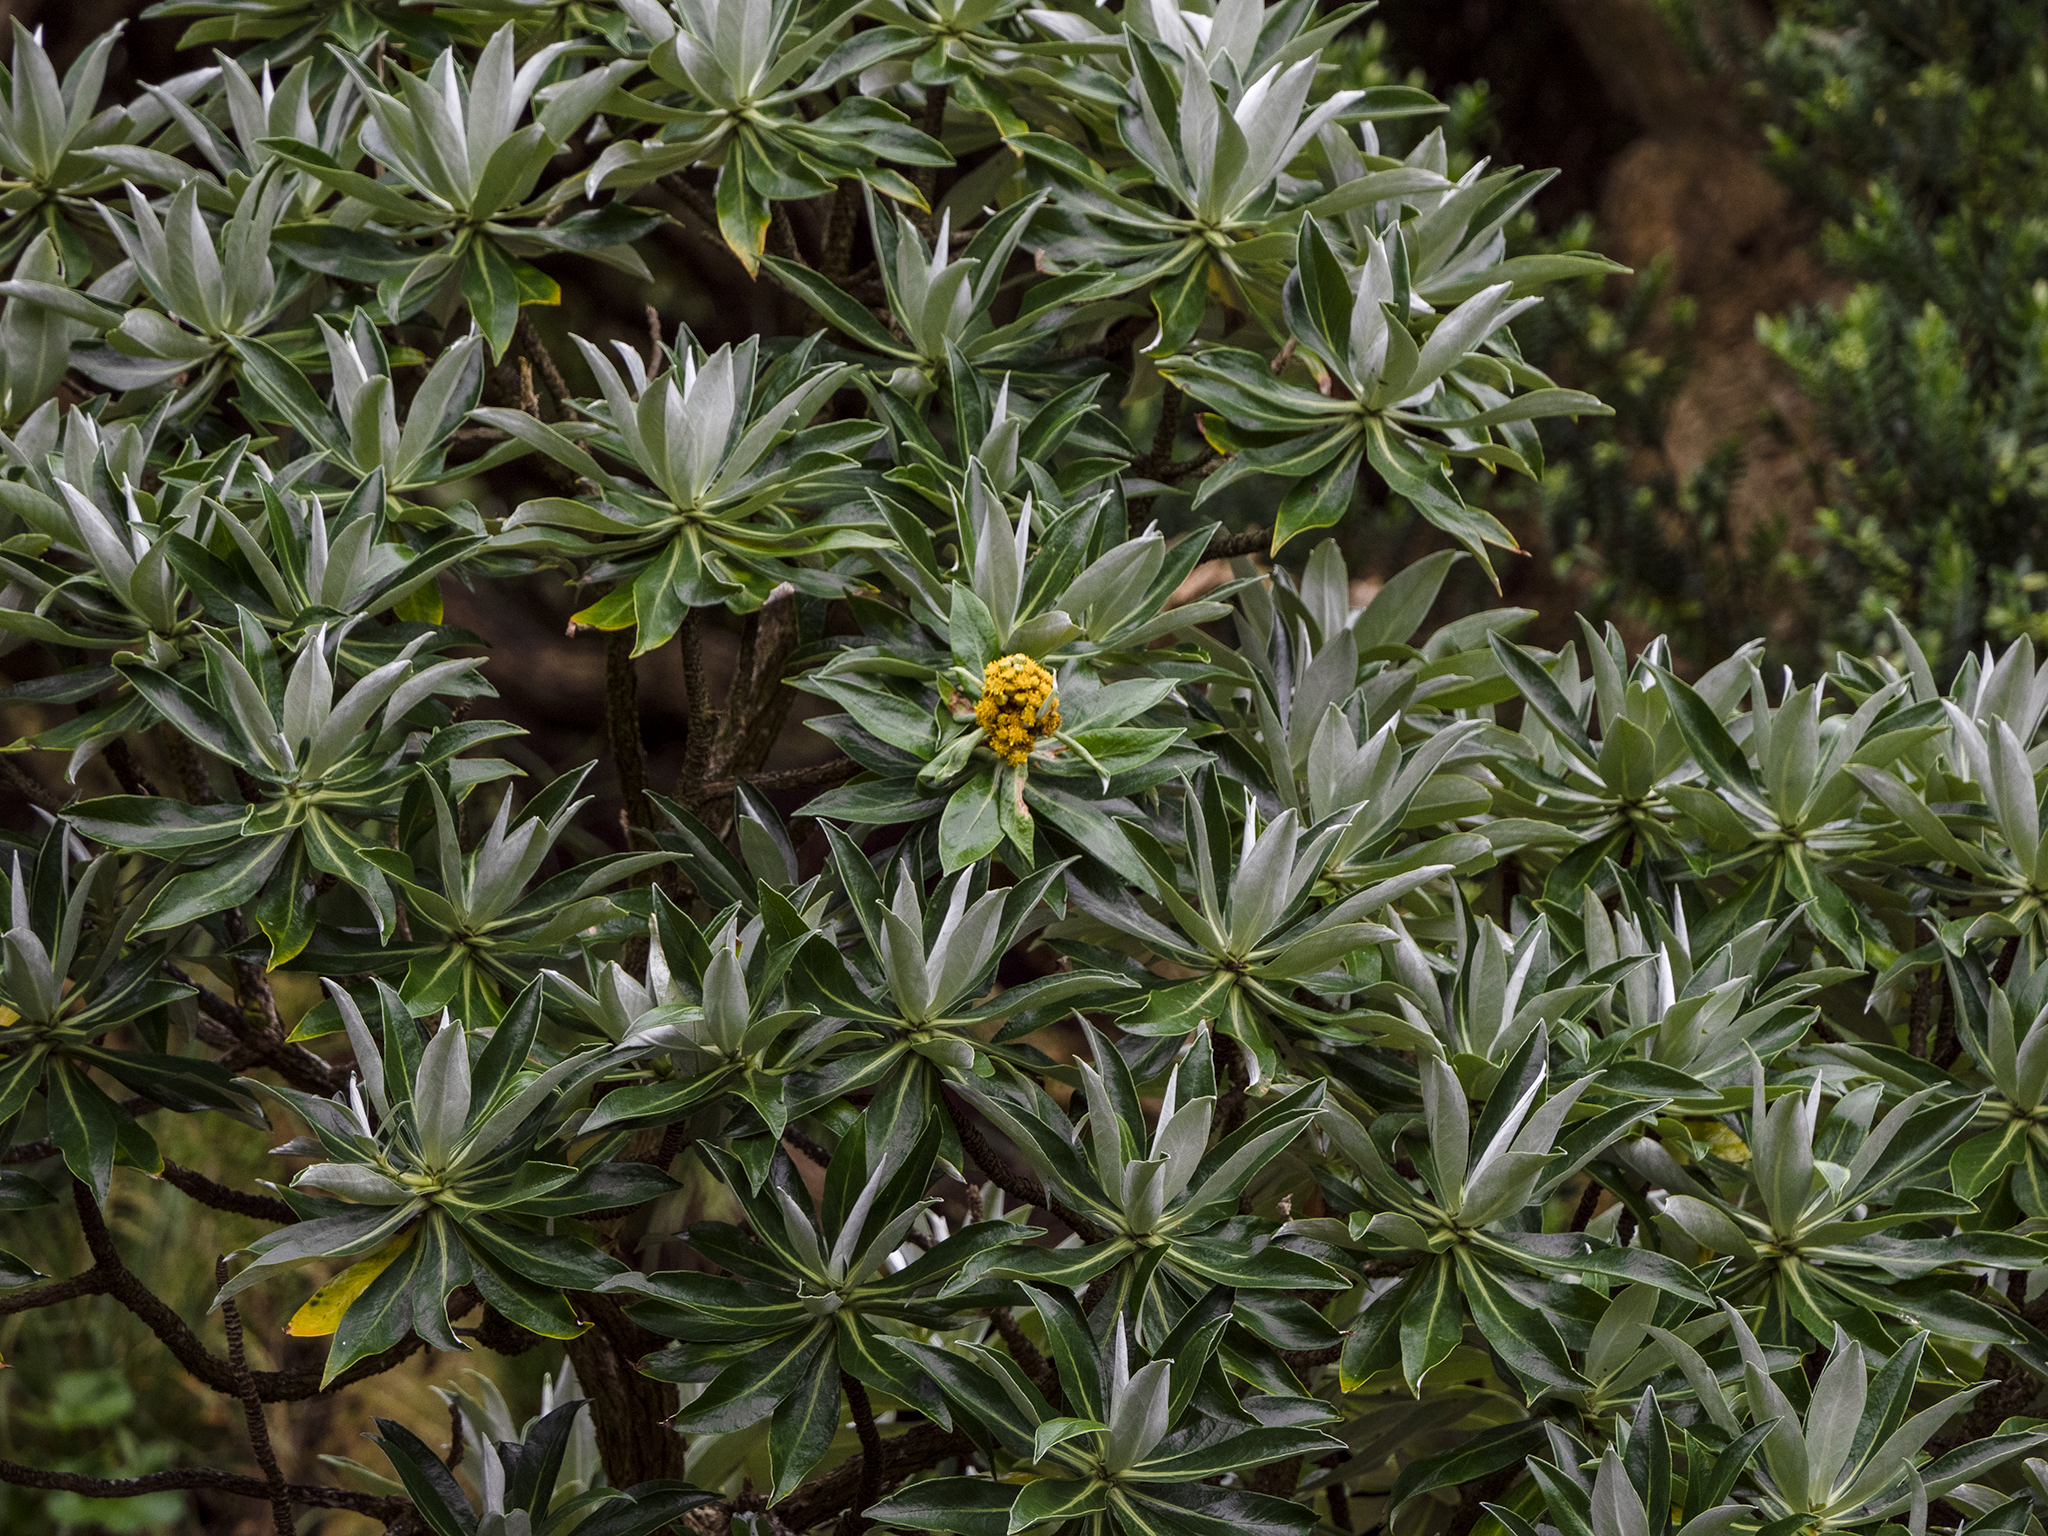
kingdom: Plantae
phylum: Tracheophyta
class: Magnoliopsida
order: Asterales
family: Asteraceae
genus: Brachyglottis
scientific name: Brachyglottis stewartiae
